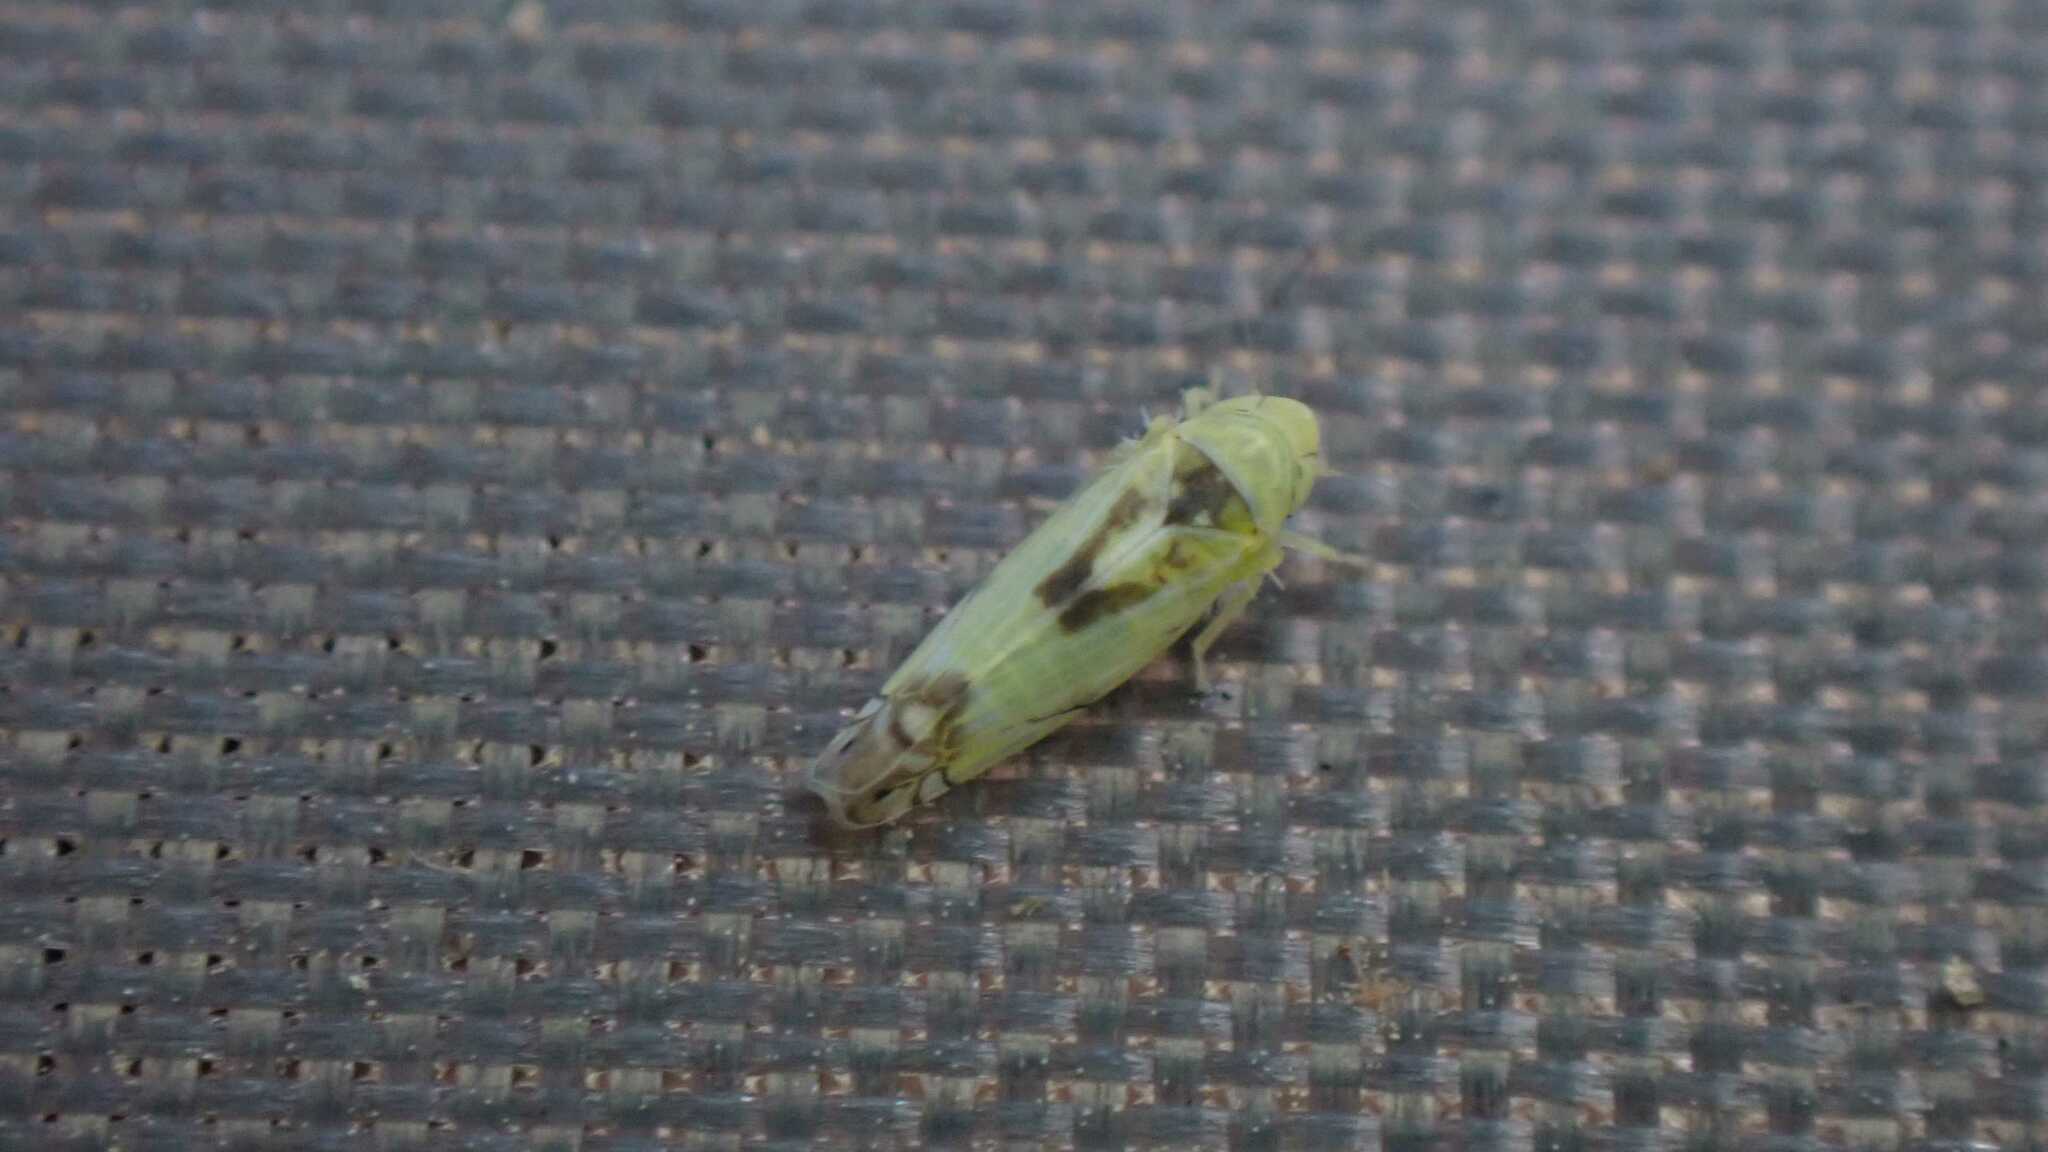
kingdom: Animalia
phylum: Arthropoda
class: Insecta
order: Hemiptera
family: Cicadellidae
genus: Zyginella
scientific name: Zyginella pulchra
